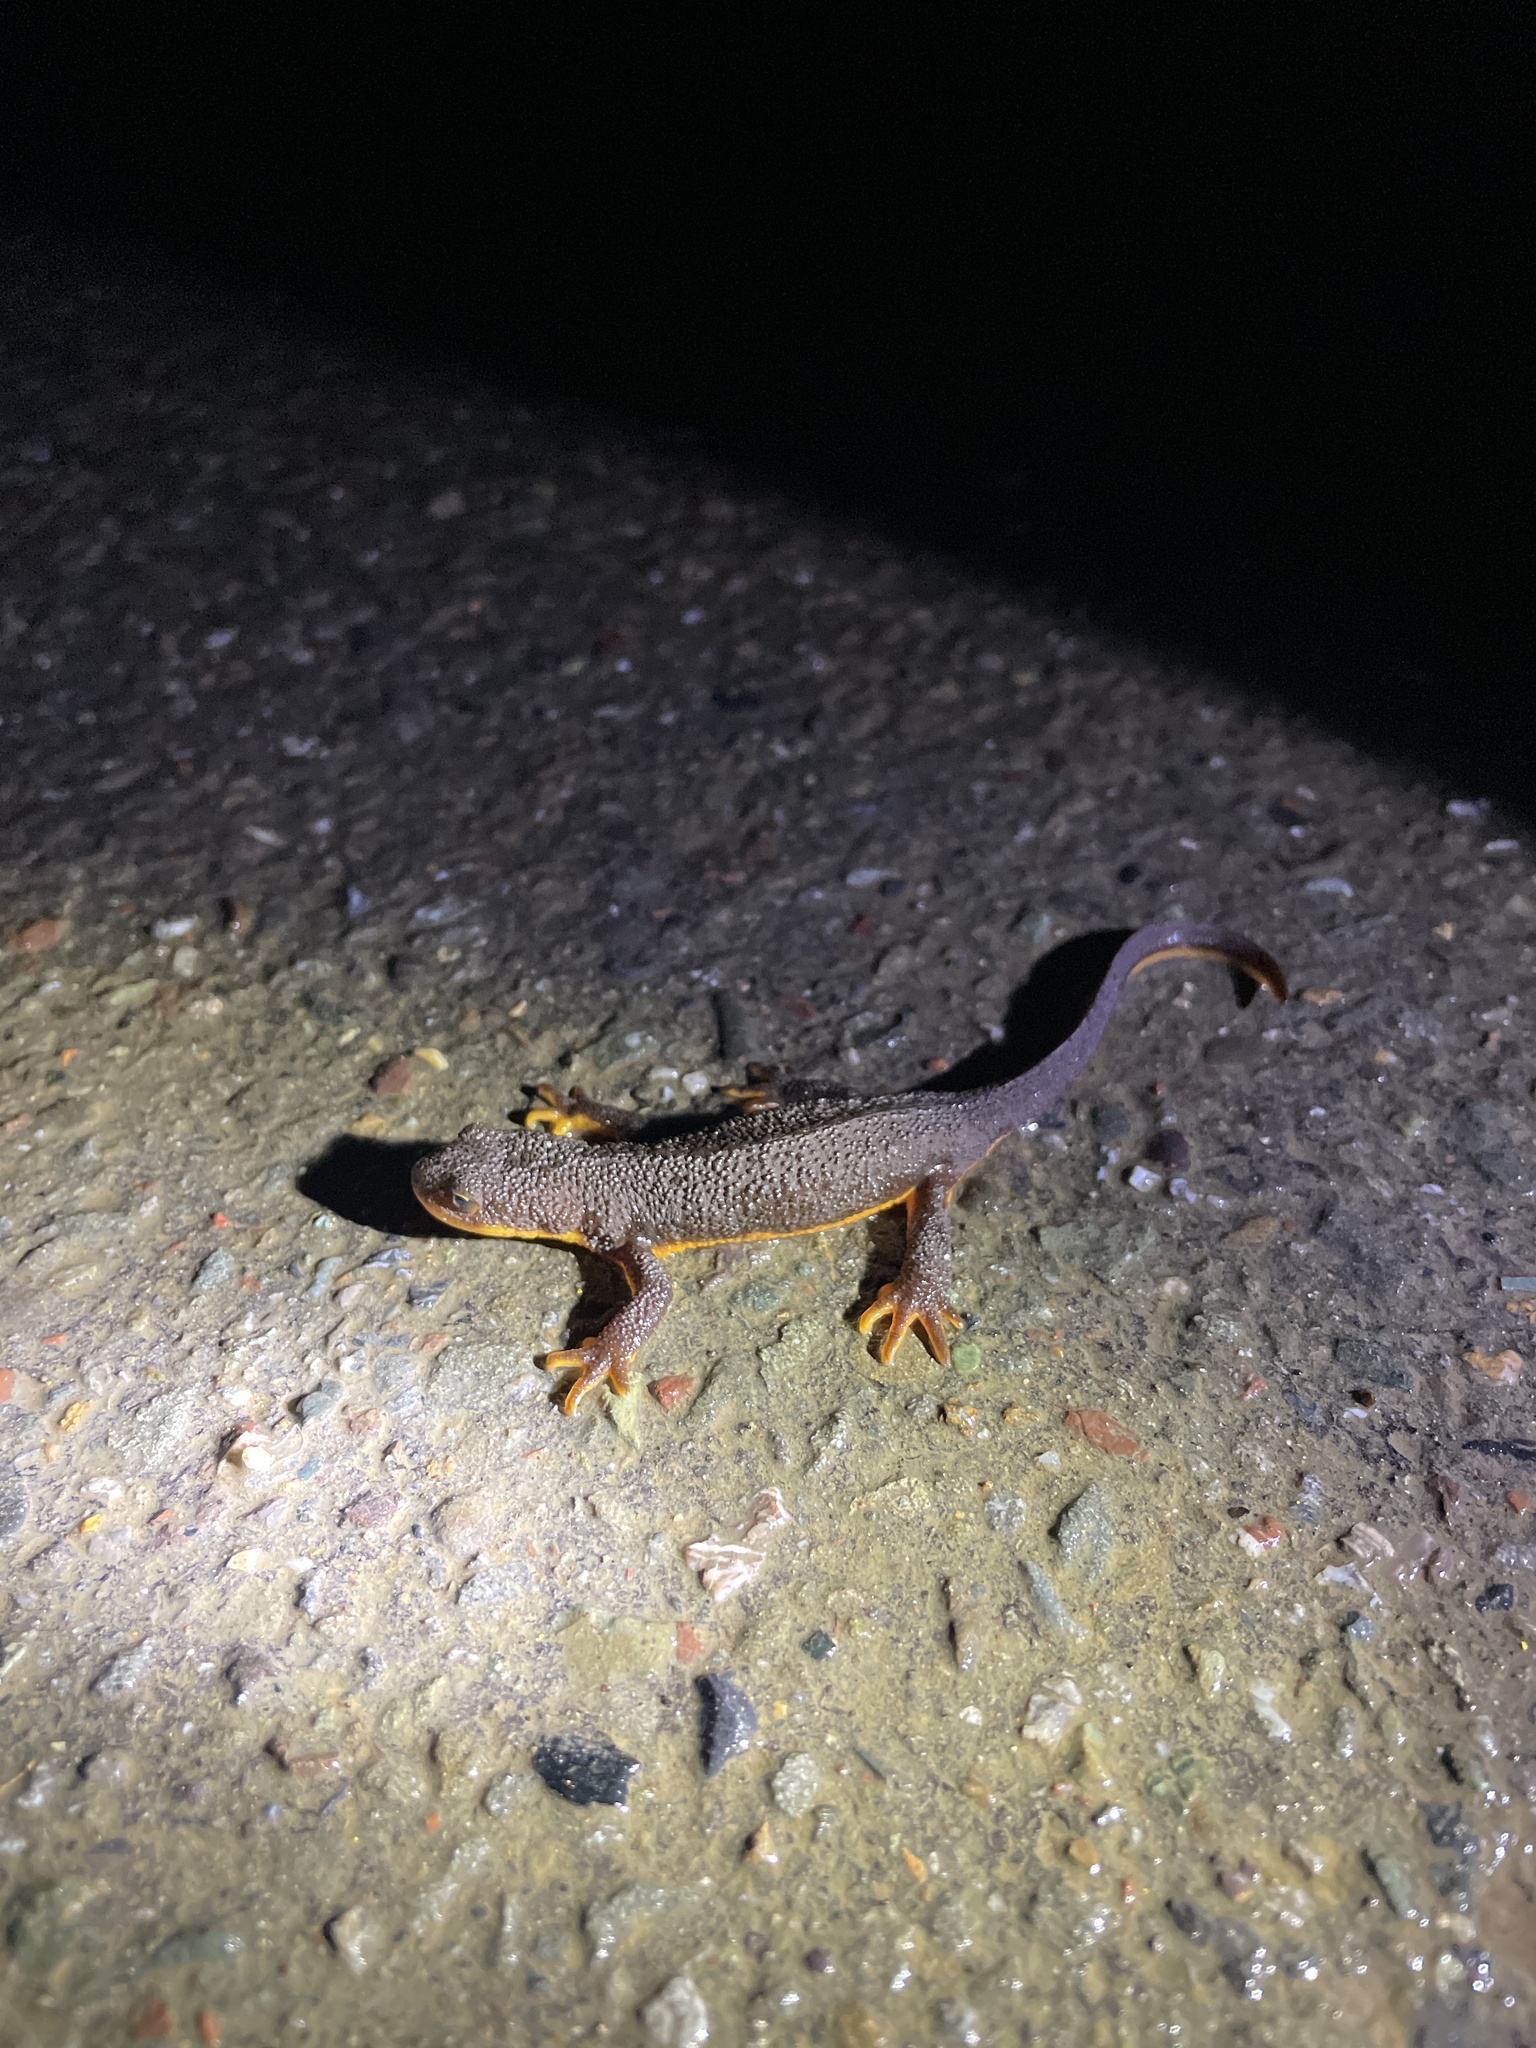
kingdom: Animalia
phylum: Chordata
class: Amphibia
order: Caudata
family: Salamandridae
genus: Taricha
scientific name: Taricha granulosa
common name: Roughskin newt
